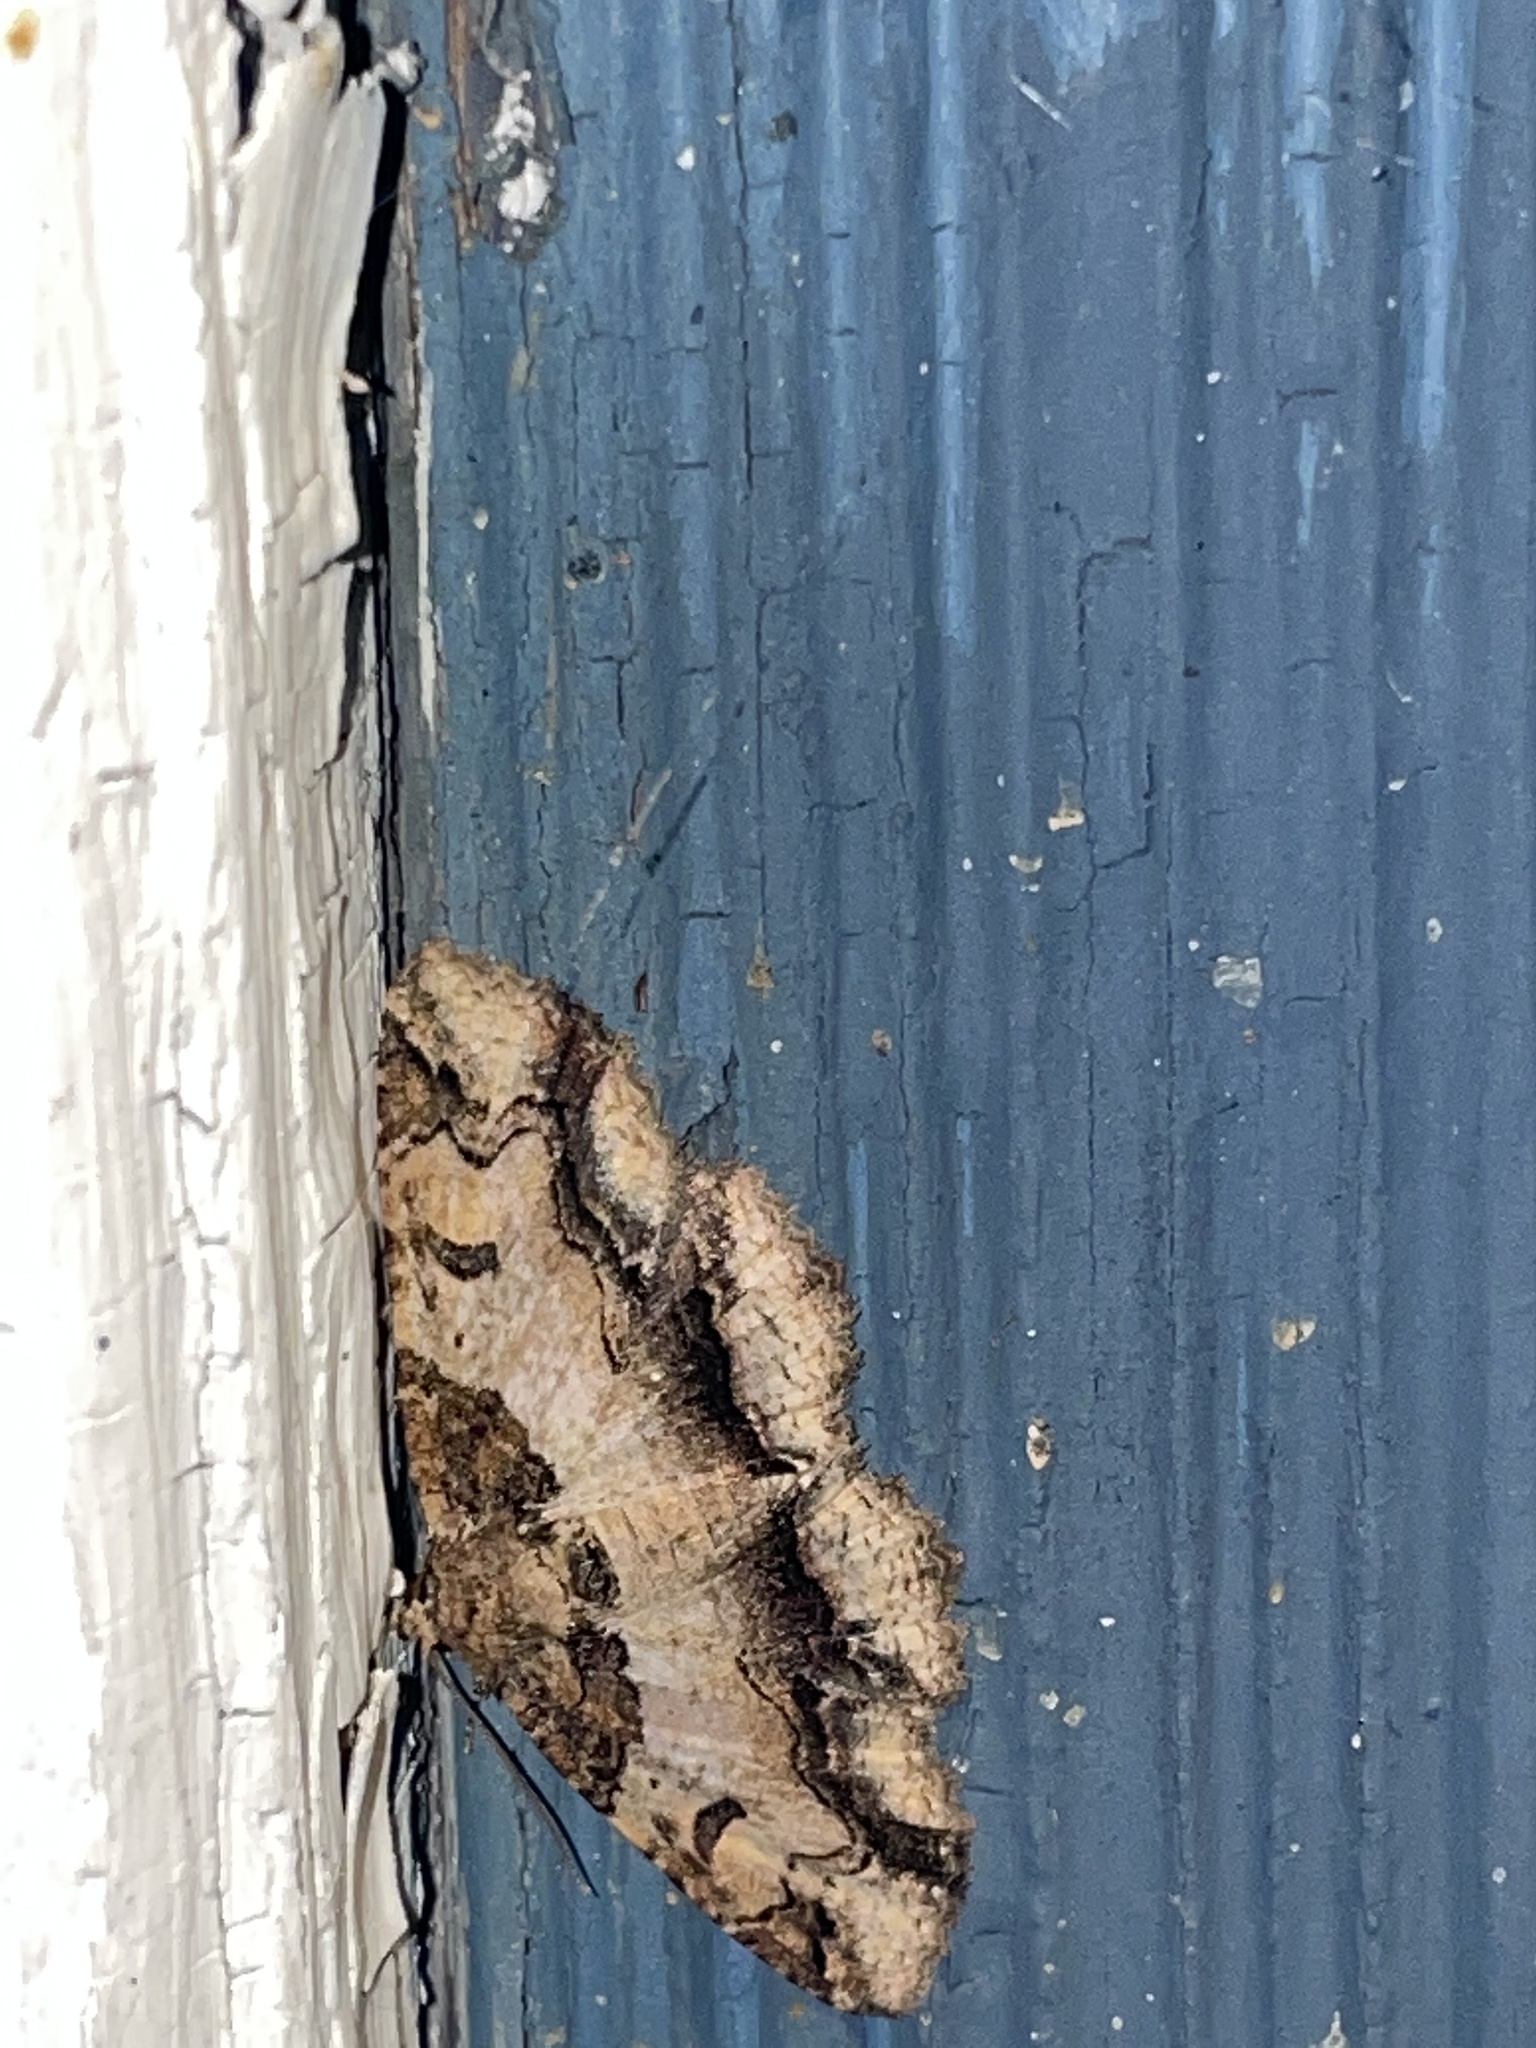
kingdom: Animalia
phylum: Arthropoda
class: Insecta
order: Lepidoptera
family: Erebidae
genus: Zale
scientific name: Zale galbanata
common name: Maple zale
